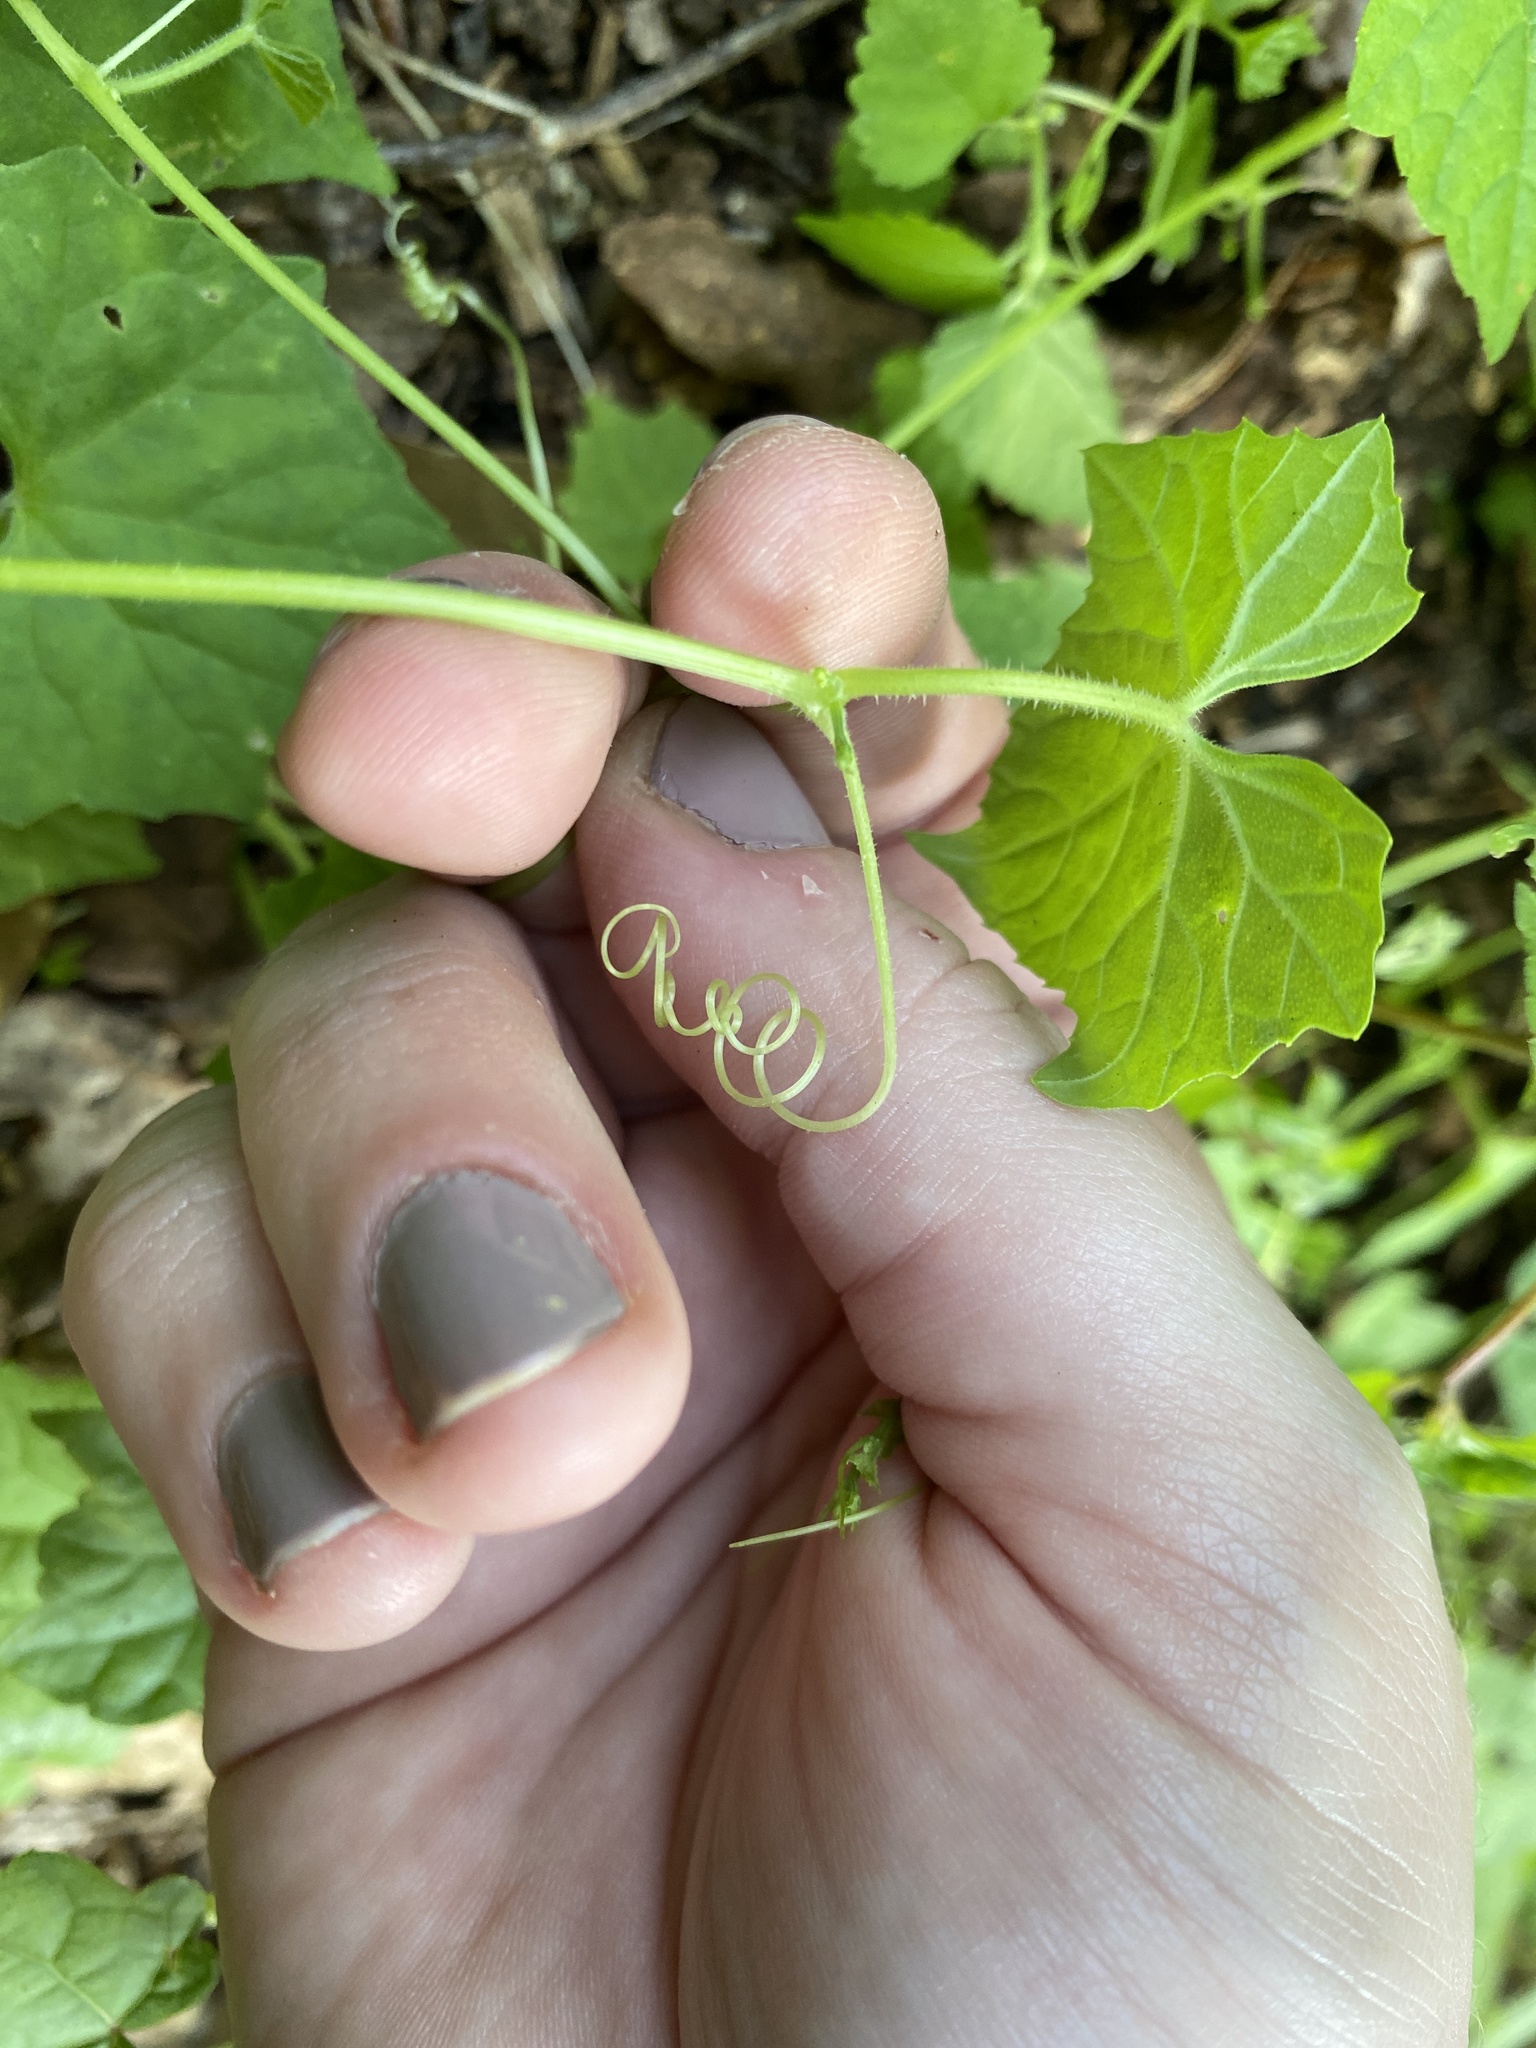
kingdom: Plantae
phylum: Tracheophyta
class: Magnoliopsida
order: Cucurbitales
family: Cucurbitaceae
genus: Melothria
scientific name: Melothria pendula
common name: Creeping-cucumber
